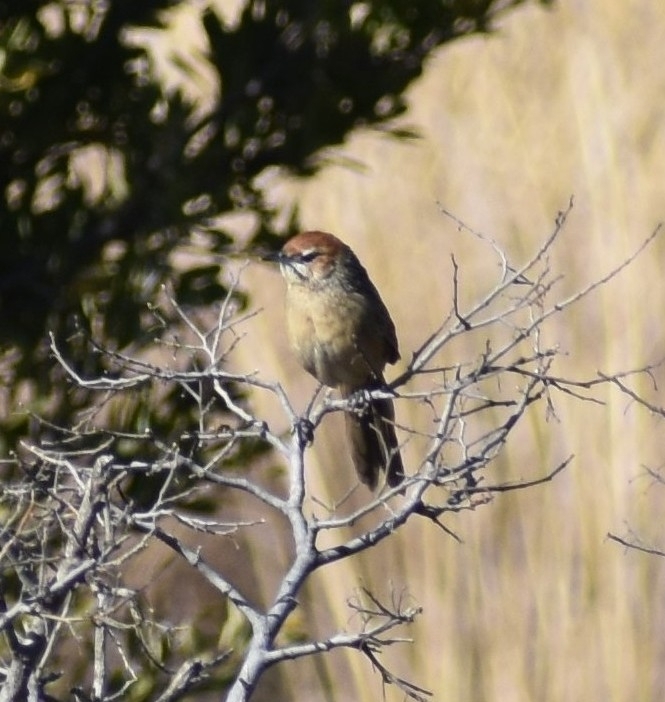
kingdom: Animalia
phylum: Chordata
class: Aves
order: Passeriformes
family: Macrosphenidae
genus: Sphenoeacus
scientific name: Sphenoeacus afer
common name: Cape grassbird
